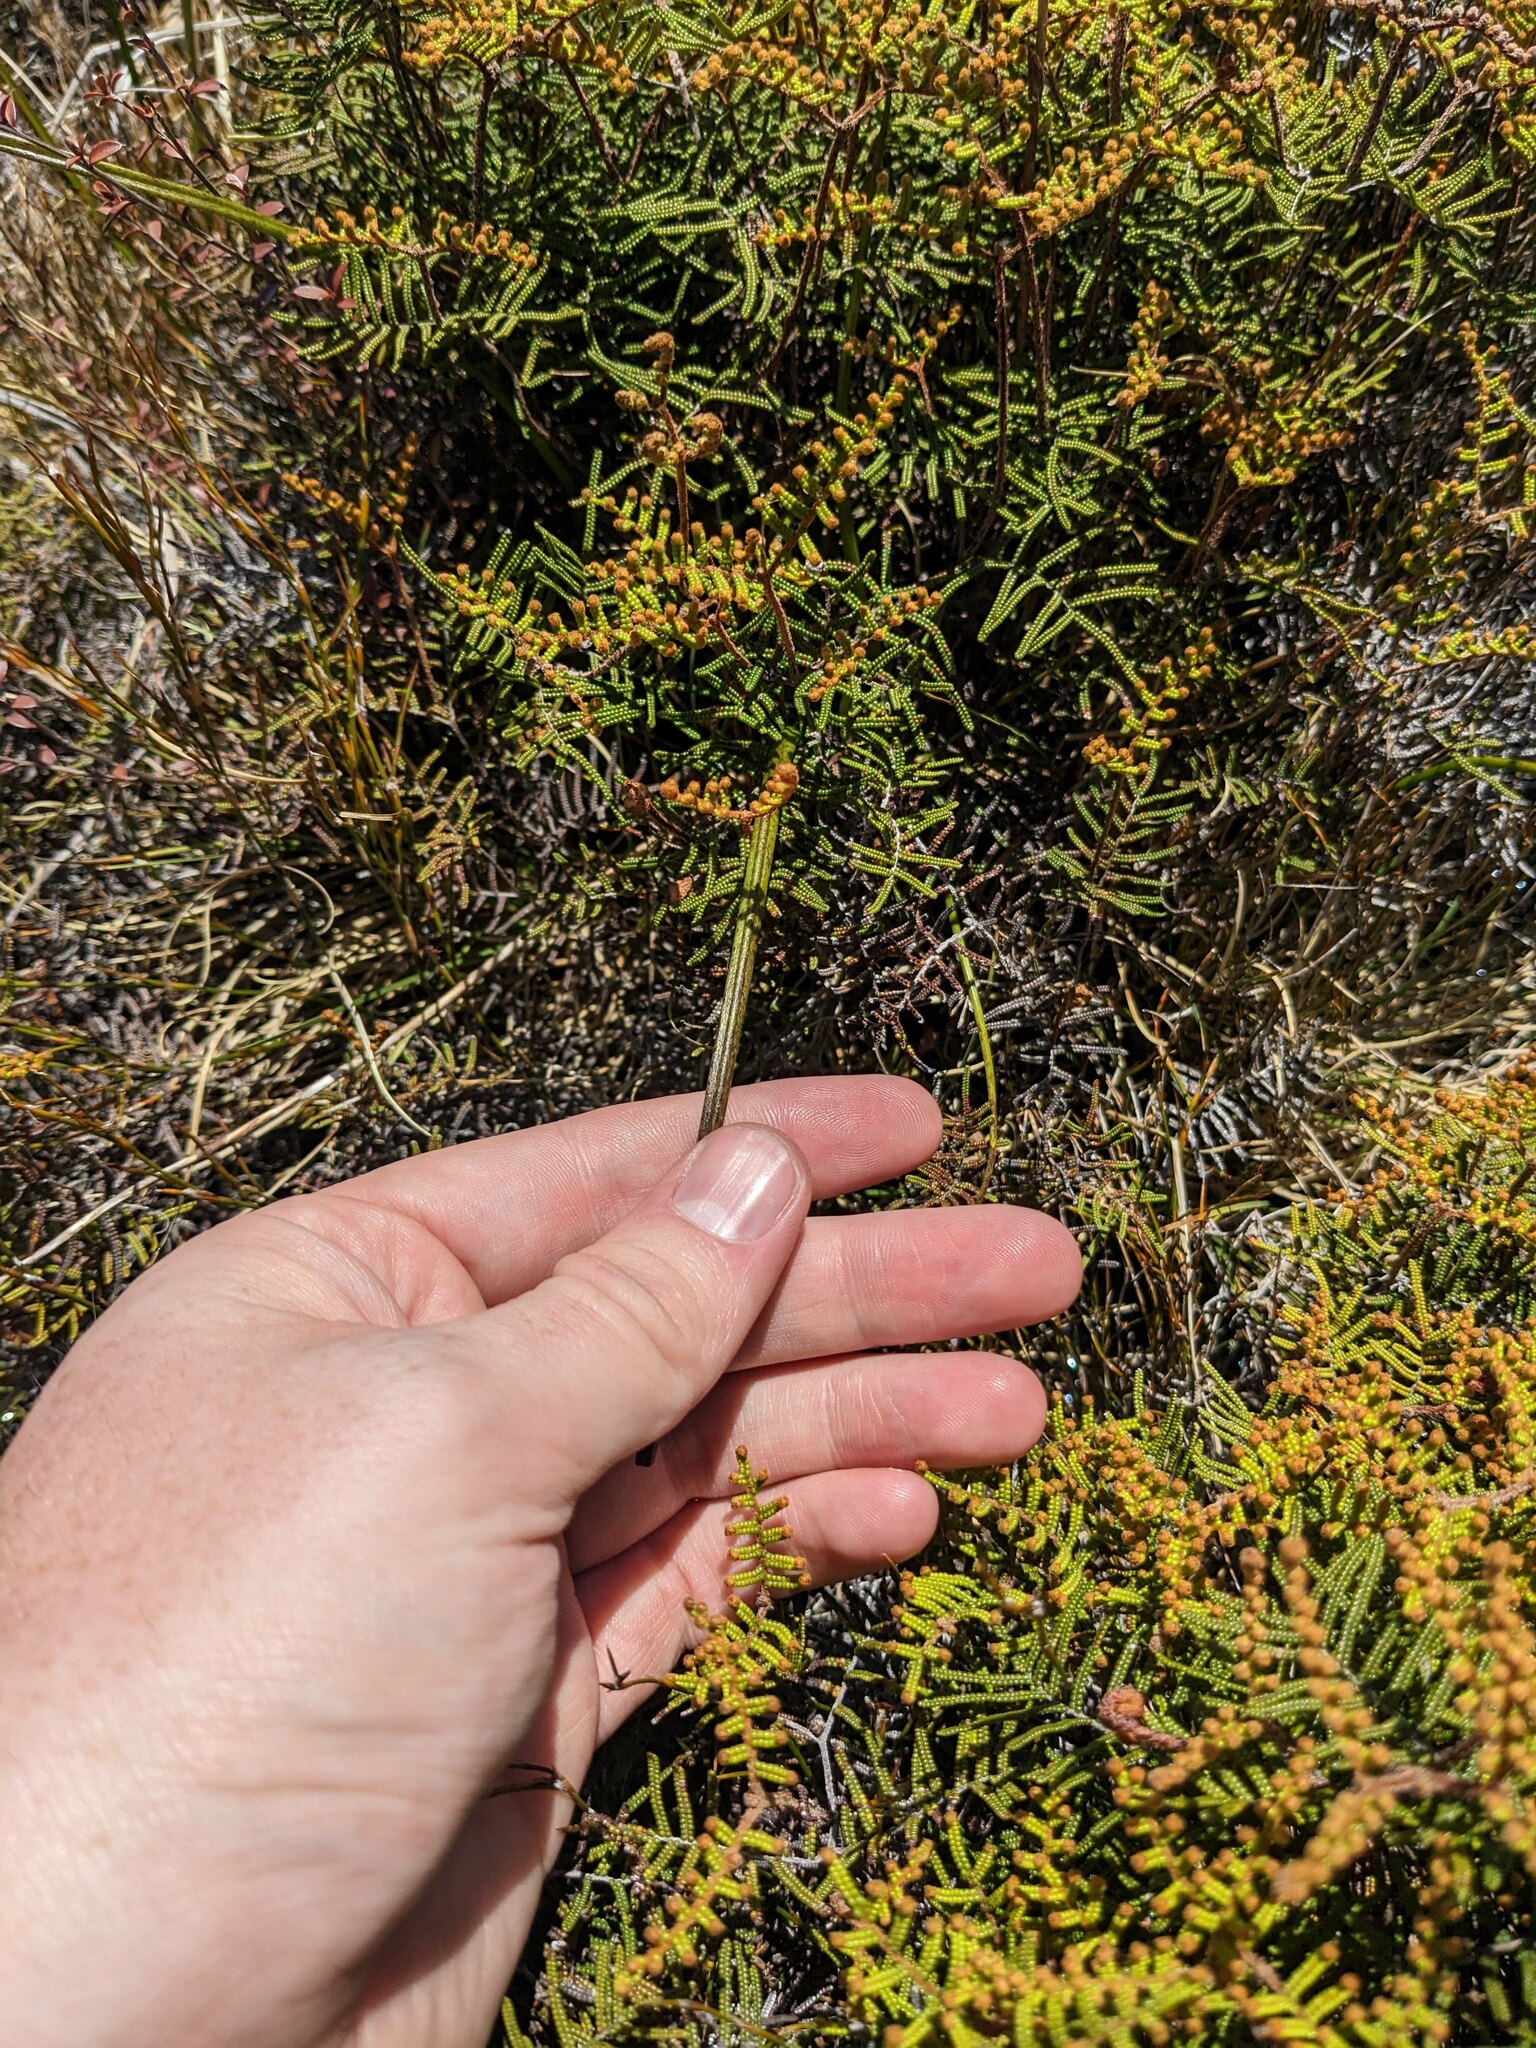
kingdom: Plantae
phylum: Tracheophyta
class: Liliopsida
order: Asparagales
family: Orchidaceae
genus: Thelymitra
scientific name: Thelymitra cyanea
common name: Blue sun-orchid
